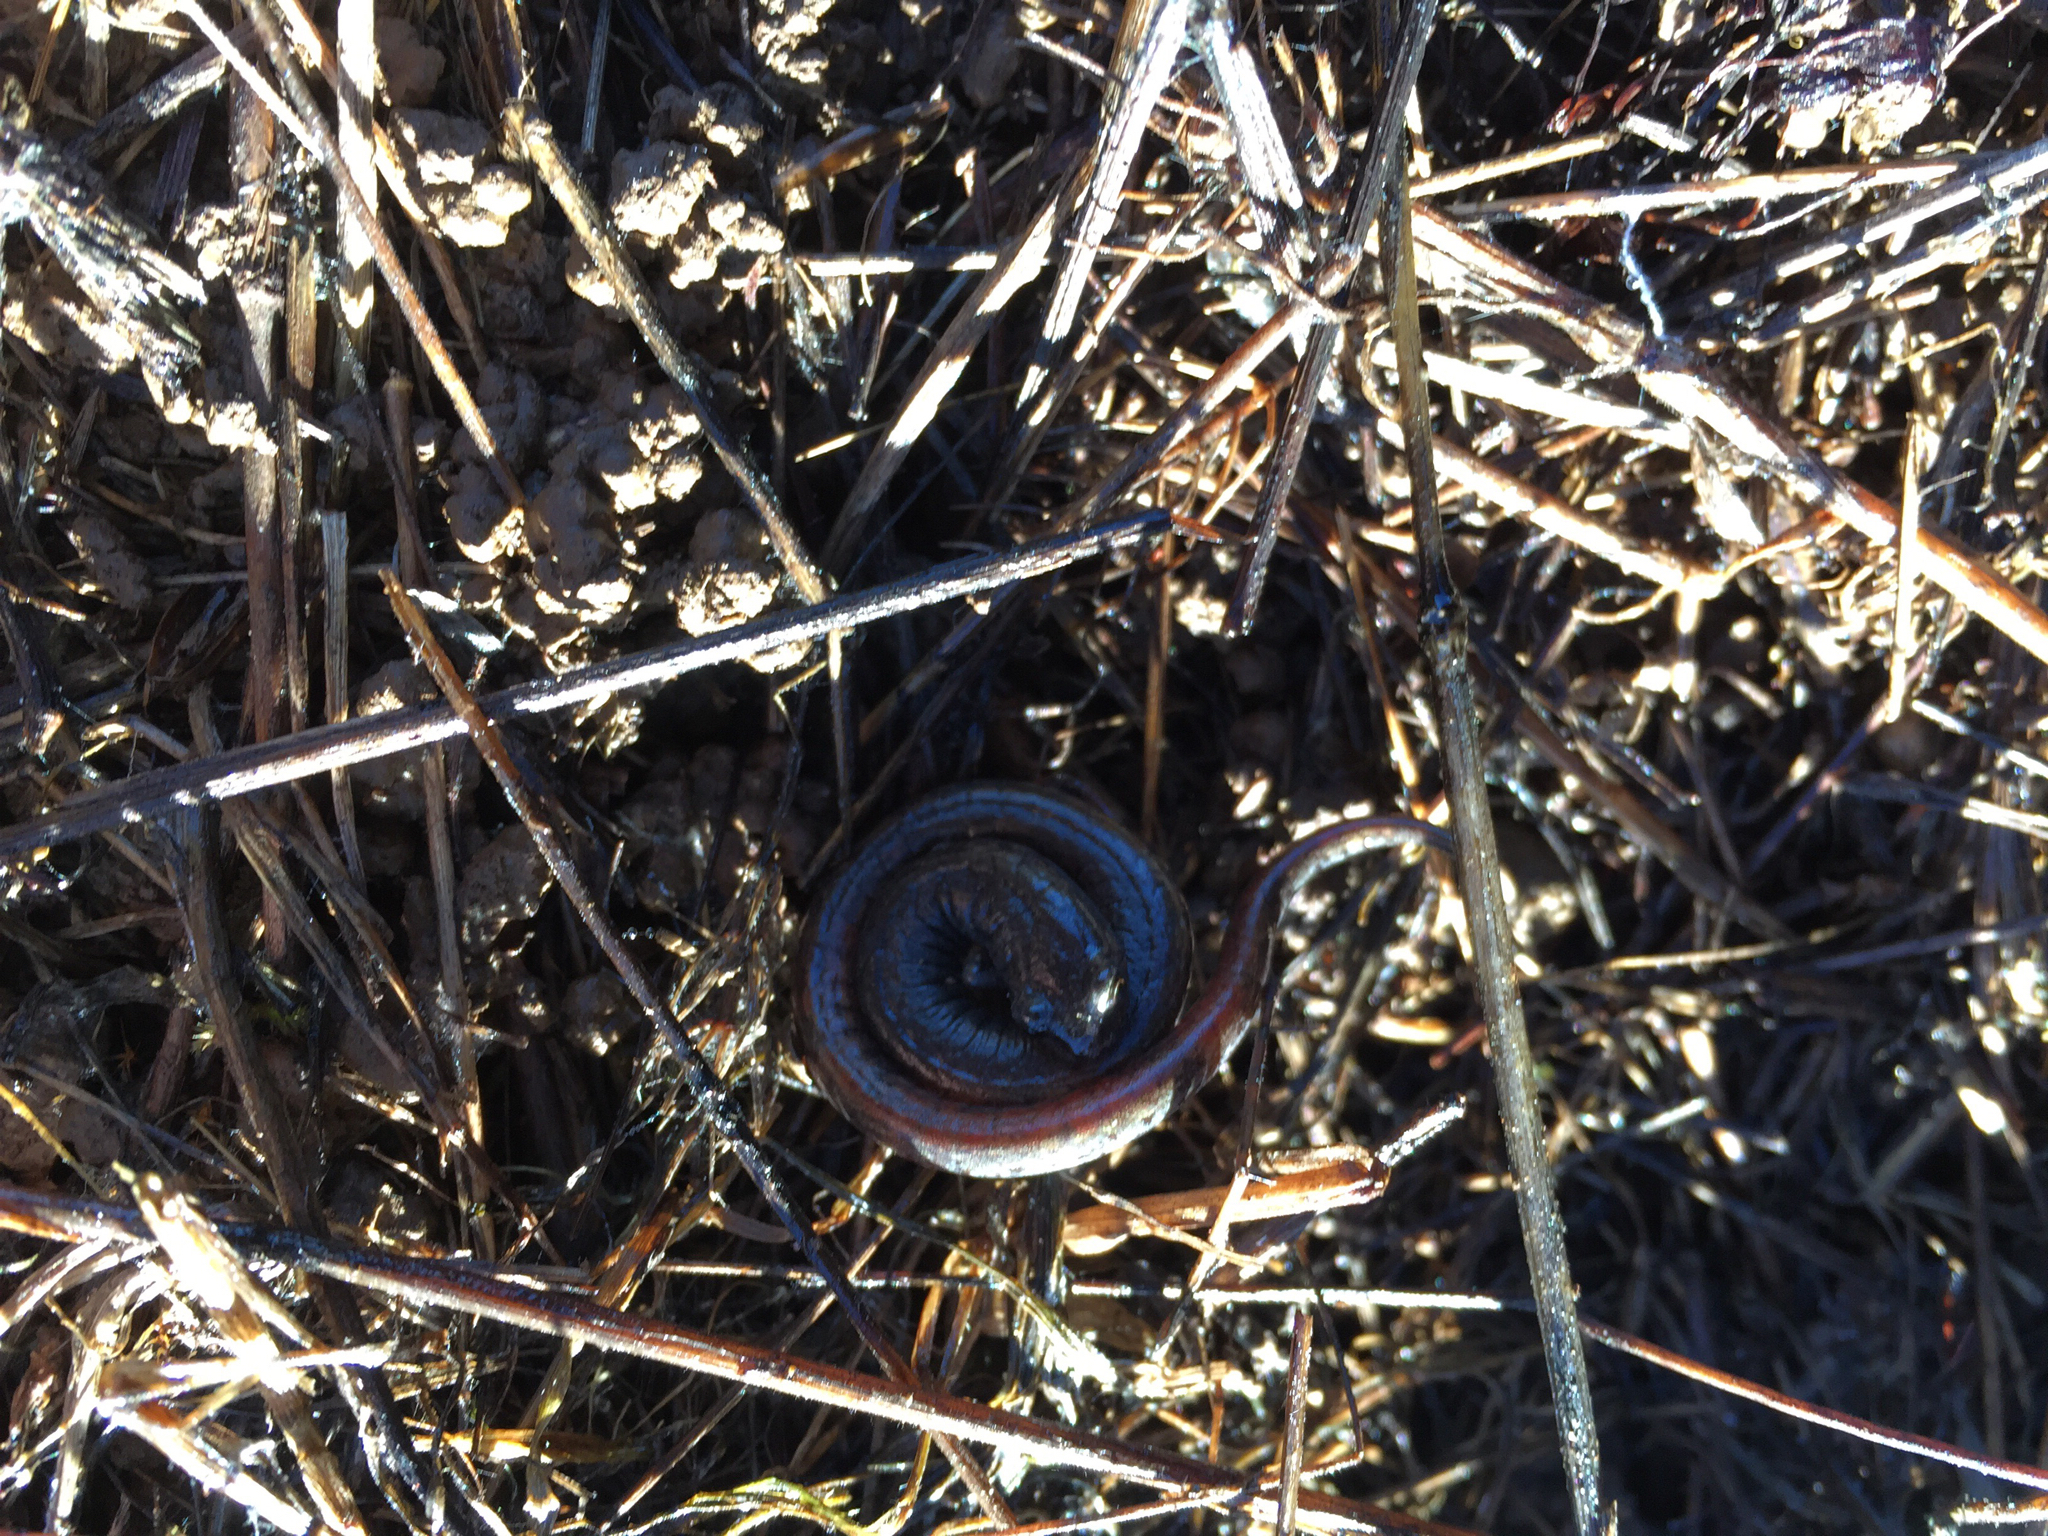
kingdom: Animalia
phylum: Chordata
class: Amphibia
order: Caudata
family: Plethodontidae
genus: Batrachoseps
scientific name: Batrachoseps attenuatus
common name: California slender salamander
